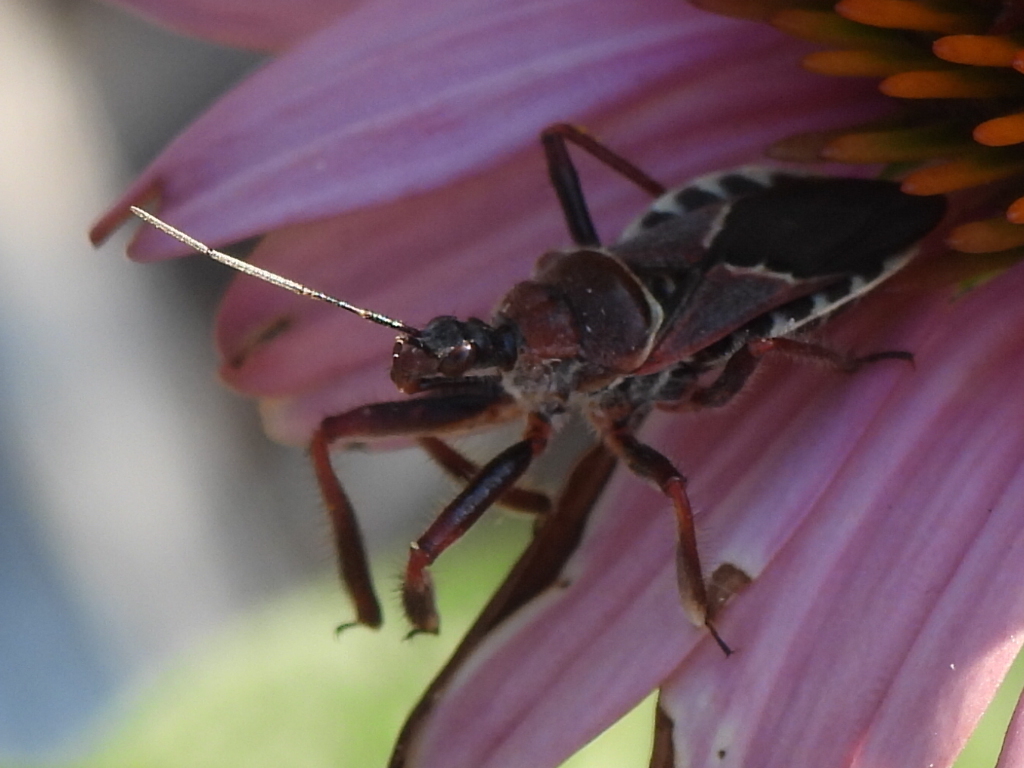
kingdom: Animalia
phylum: Arthropoda
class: Insecta
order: Hemiptera
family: Reduviidae
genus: Apiomerus
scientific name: Apiomerus spissipes
